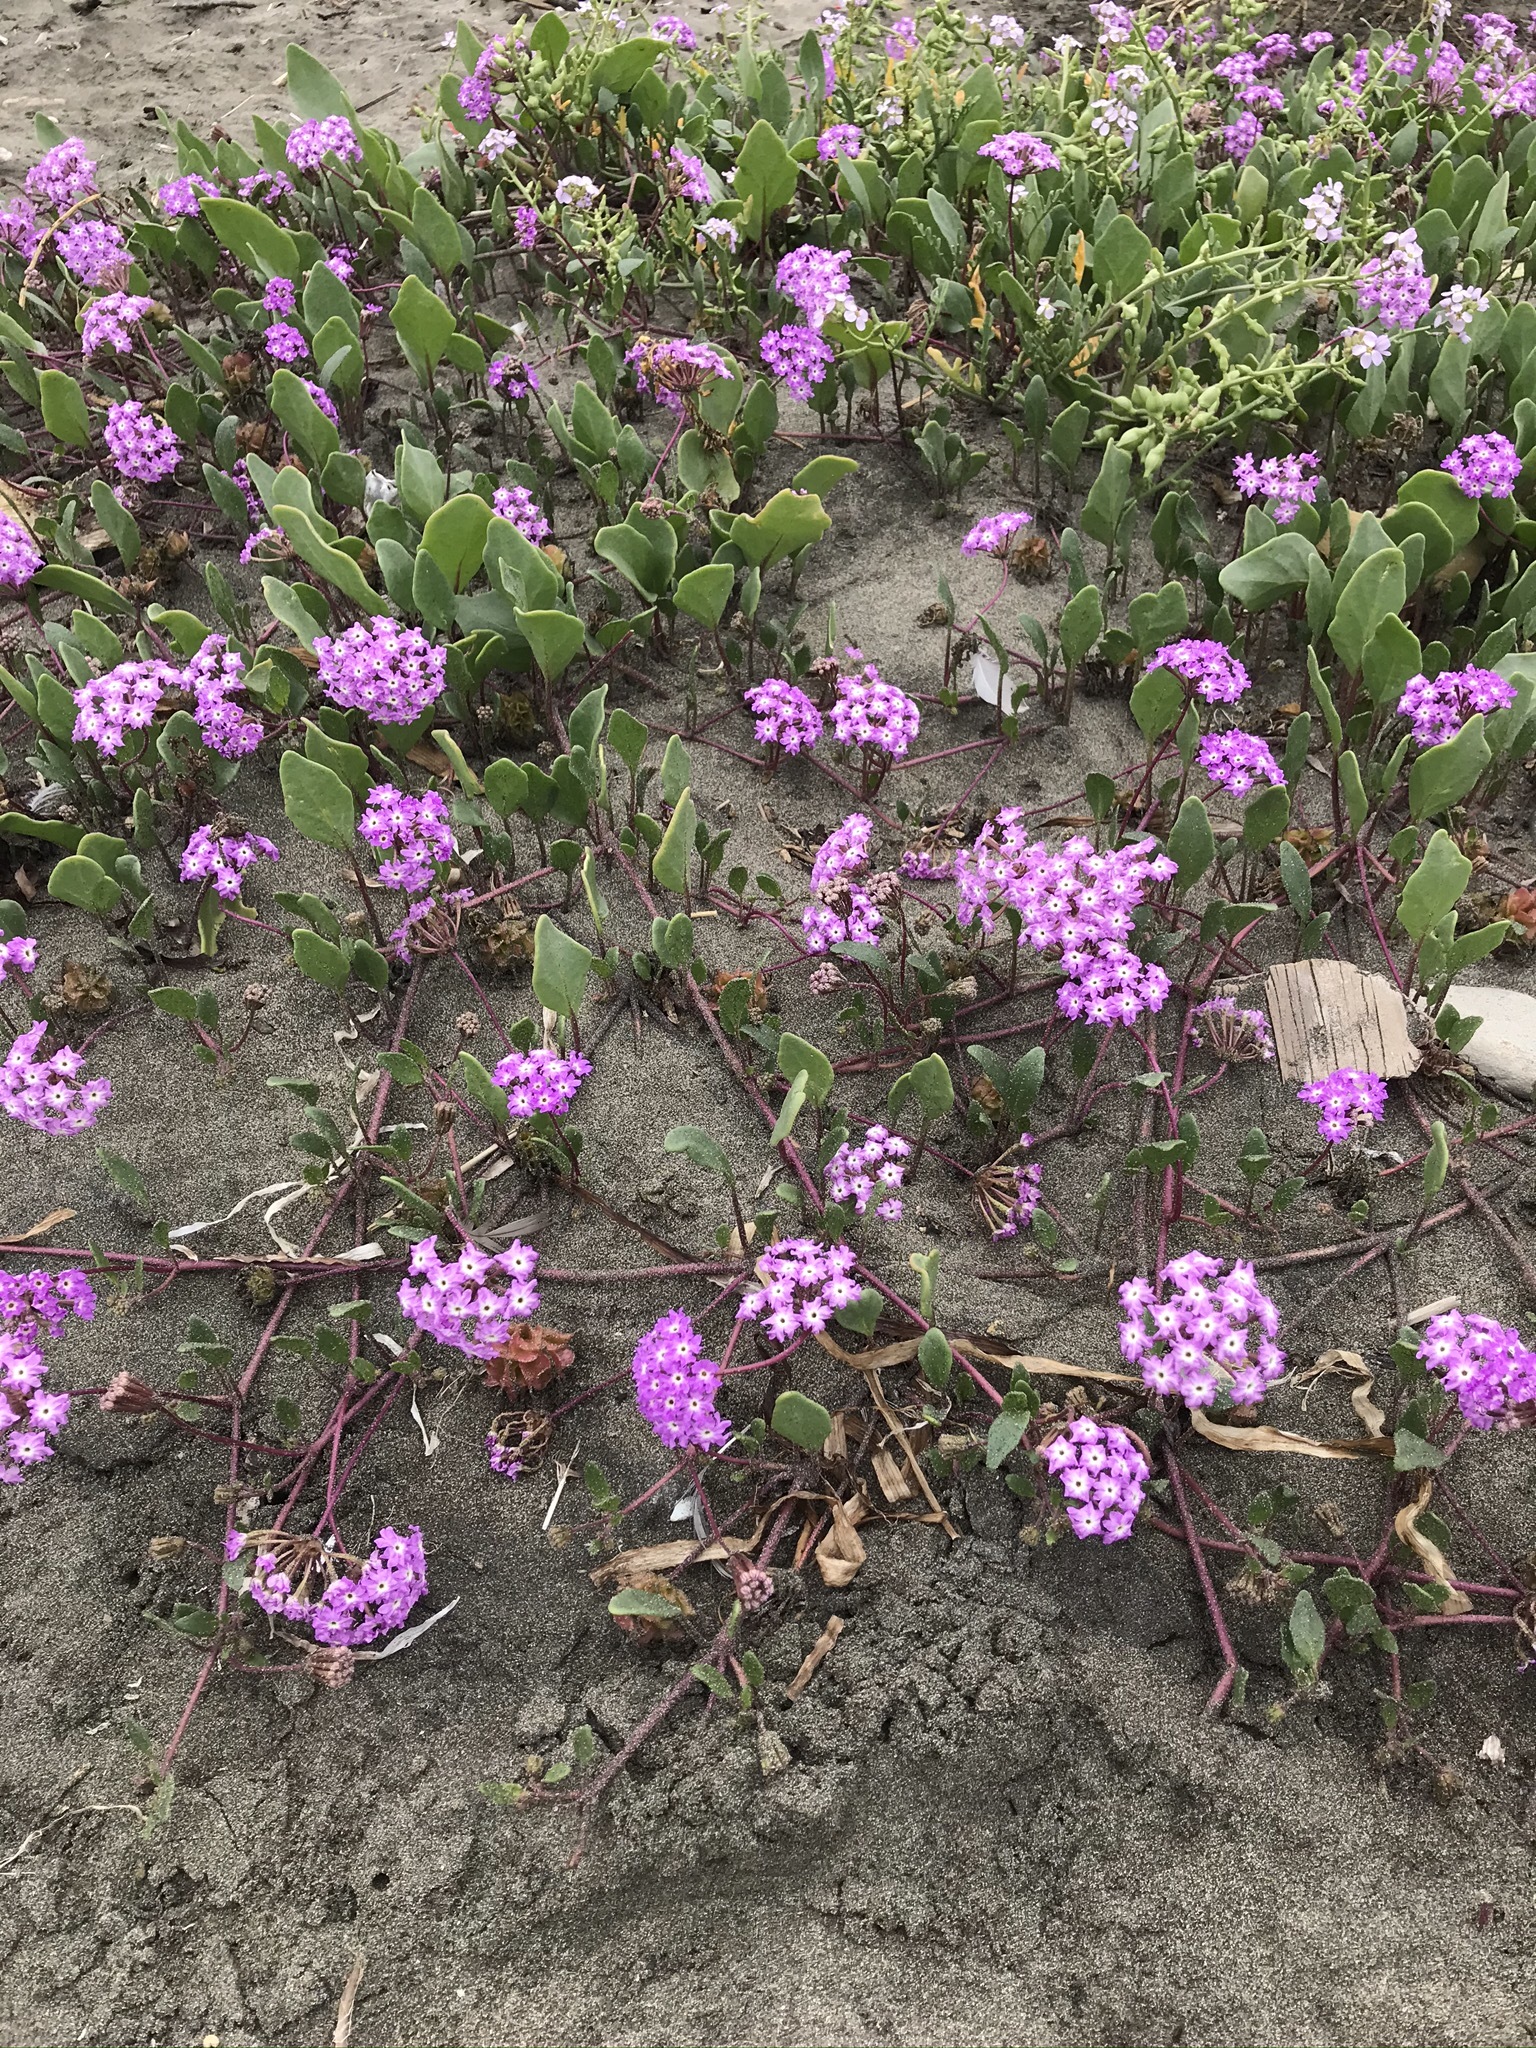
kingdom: Plantae
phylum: Tracheophyta
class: Magnoliopsida
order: Caryophyllales
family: Nyctaginaceae
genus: Abronia
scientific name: Abronia umbellata
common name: Sand-verbena
